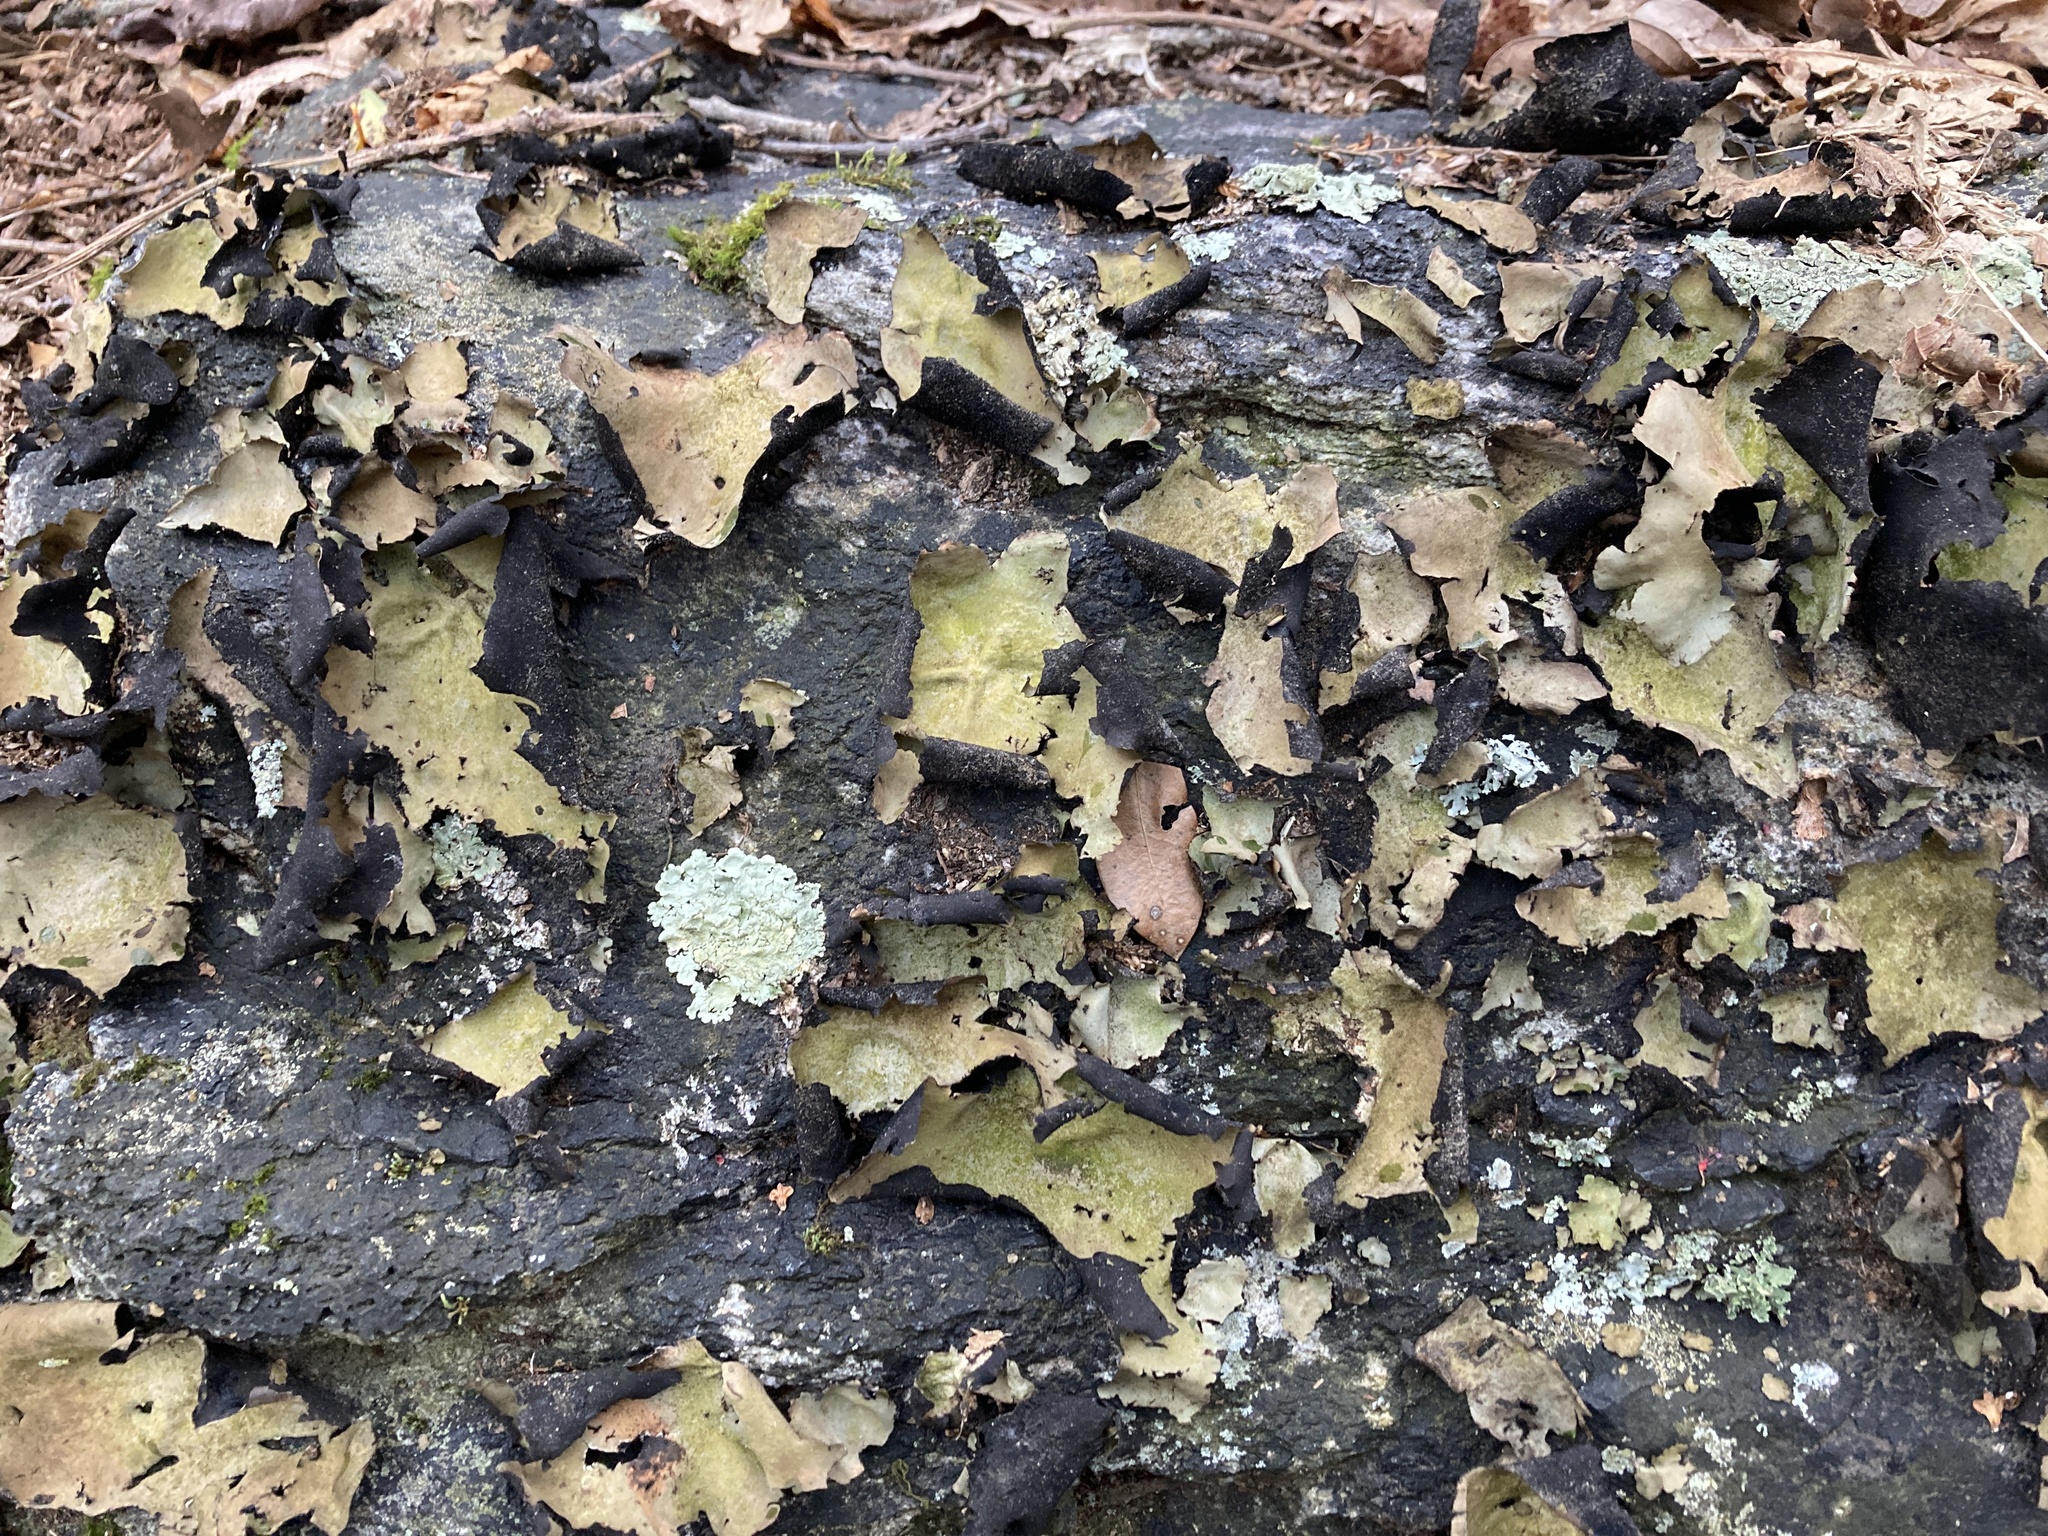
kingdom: Fungi
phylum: Ascomycota
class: Lecanoromycetes
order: Umbilicariales
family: Umbilicariaceae
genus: Umbilicaria
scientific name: Umbilicaria mammulata
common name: Smooth rock tripe
